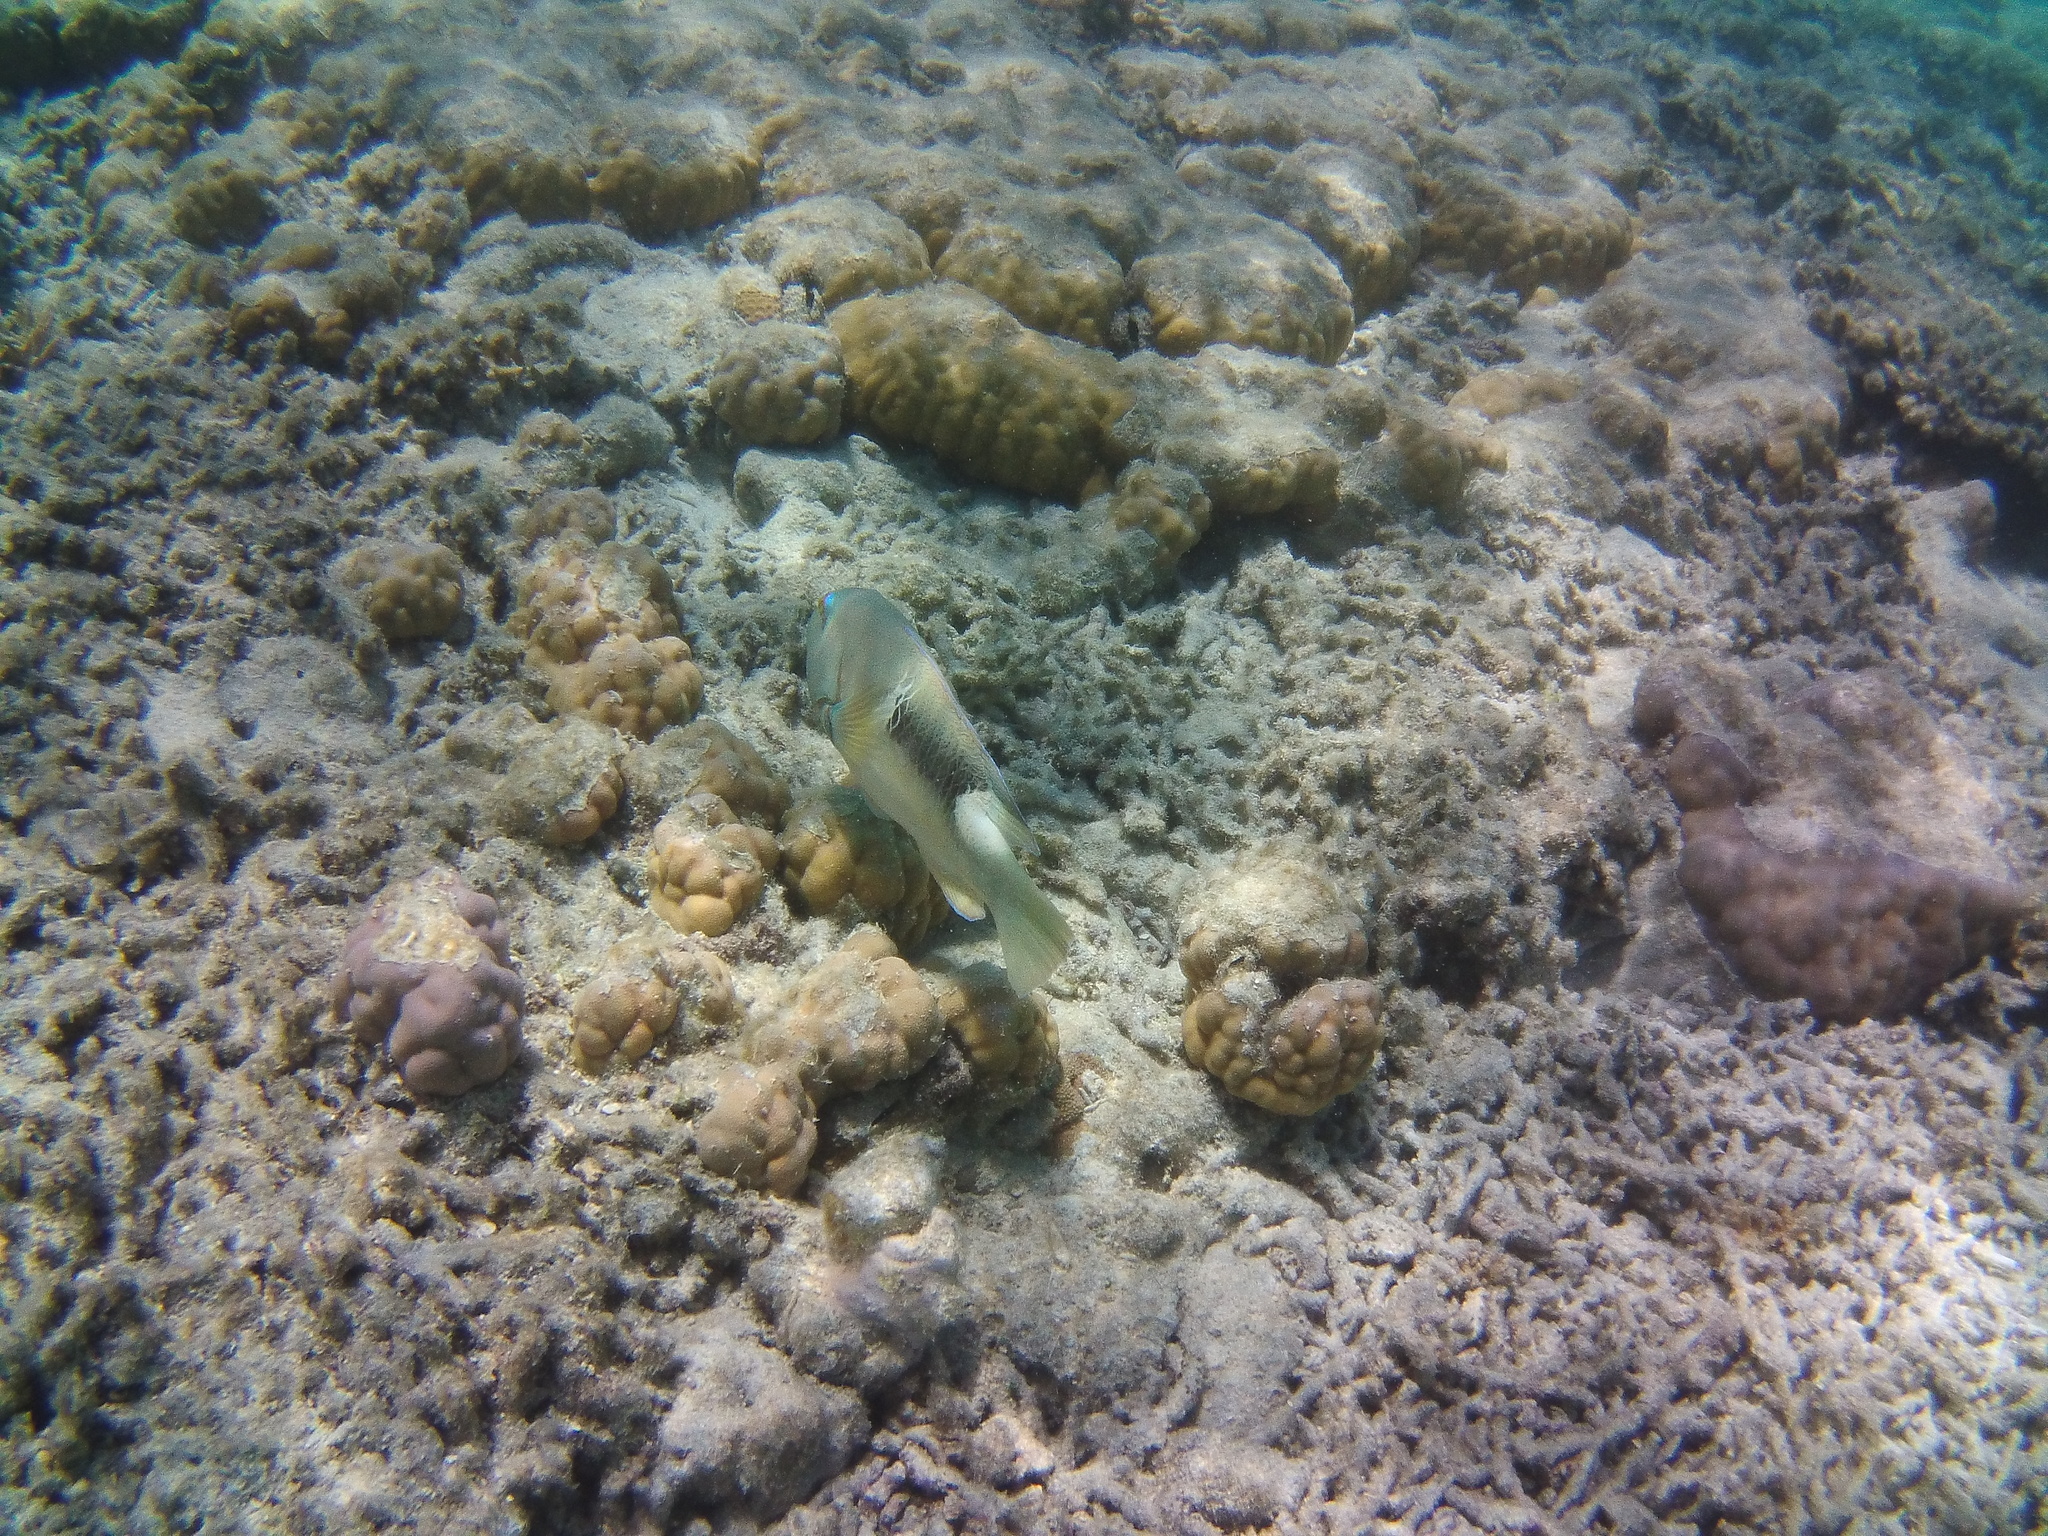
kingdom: Animalia
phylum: Chordata
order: Perciformes
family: Labridae
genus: Choerodon
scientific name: Choerodon anchorago
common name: Anchor tuskfish
